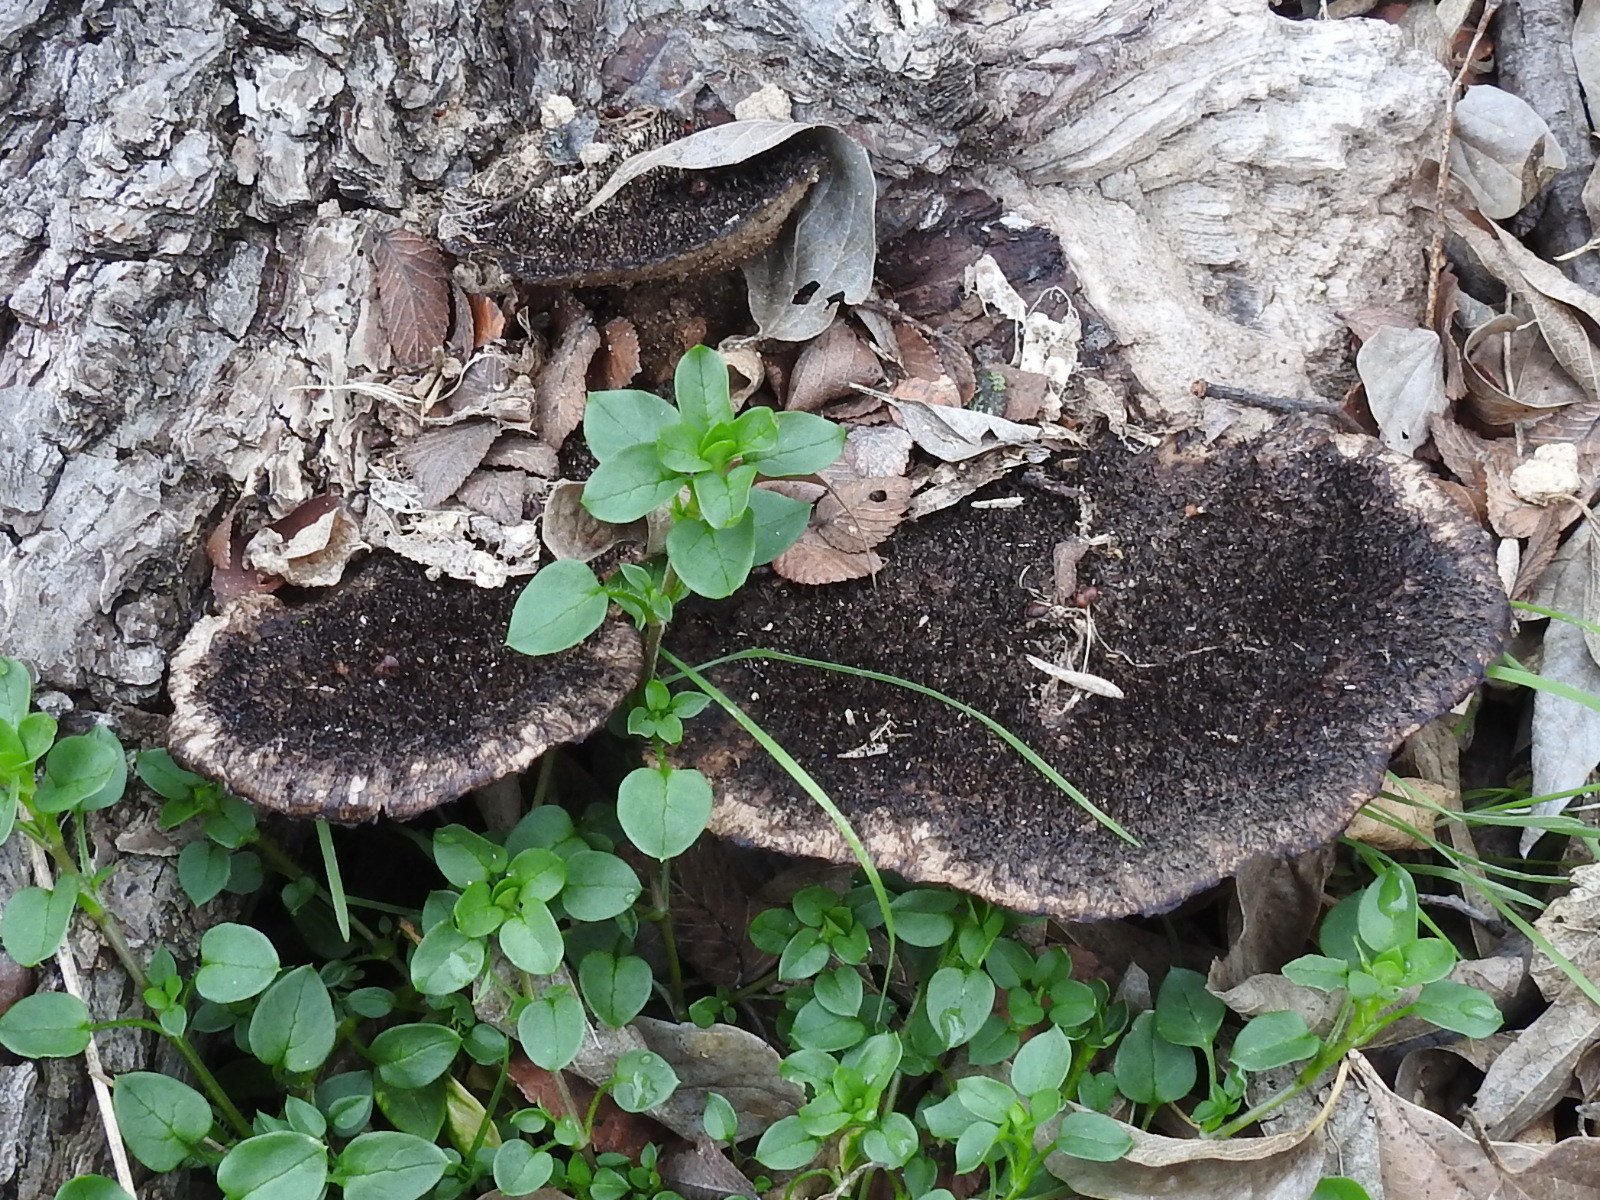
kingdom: Fungi
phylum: Basidiomycota
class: Agaricomycetes
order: Polyporales
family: Cerrenaceae
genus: Cerrena
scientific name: Cerrena hydnoides
